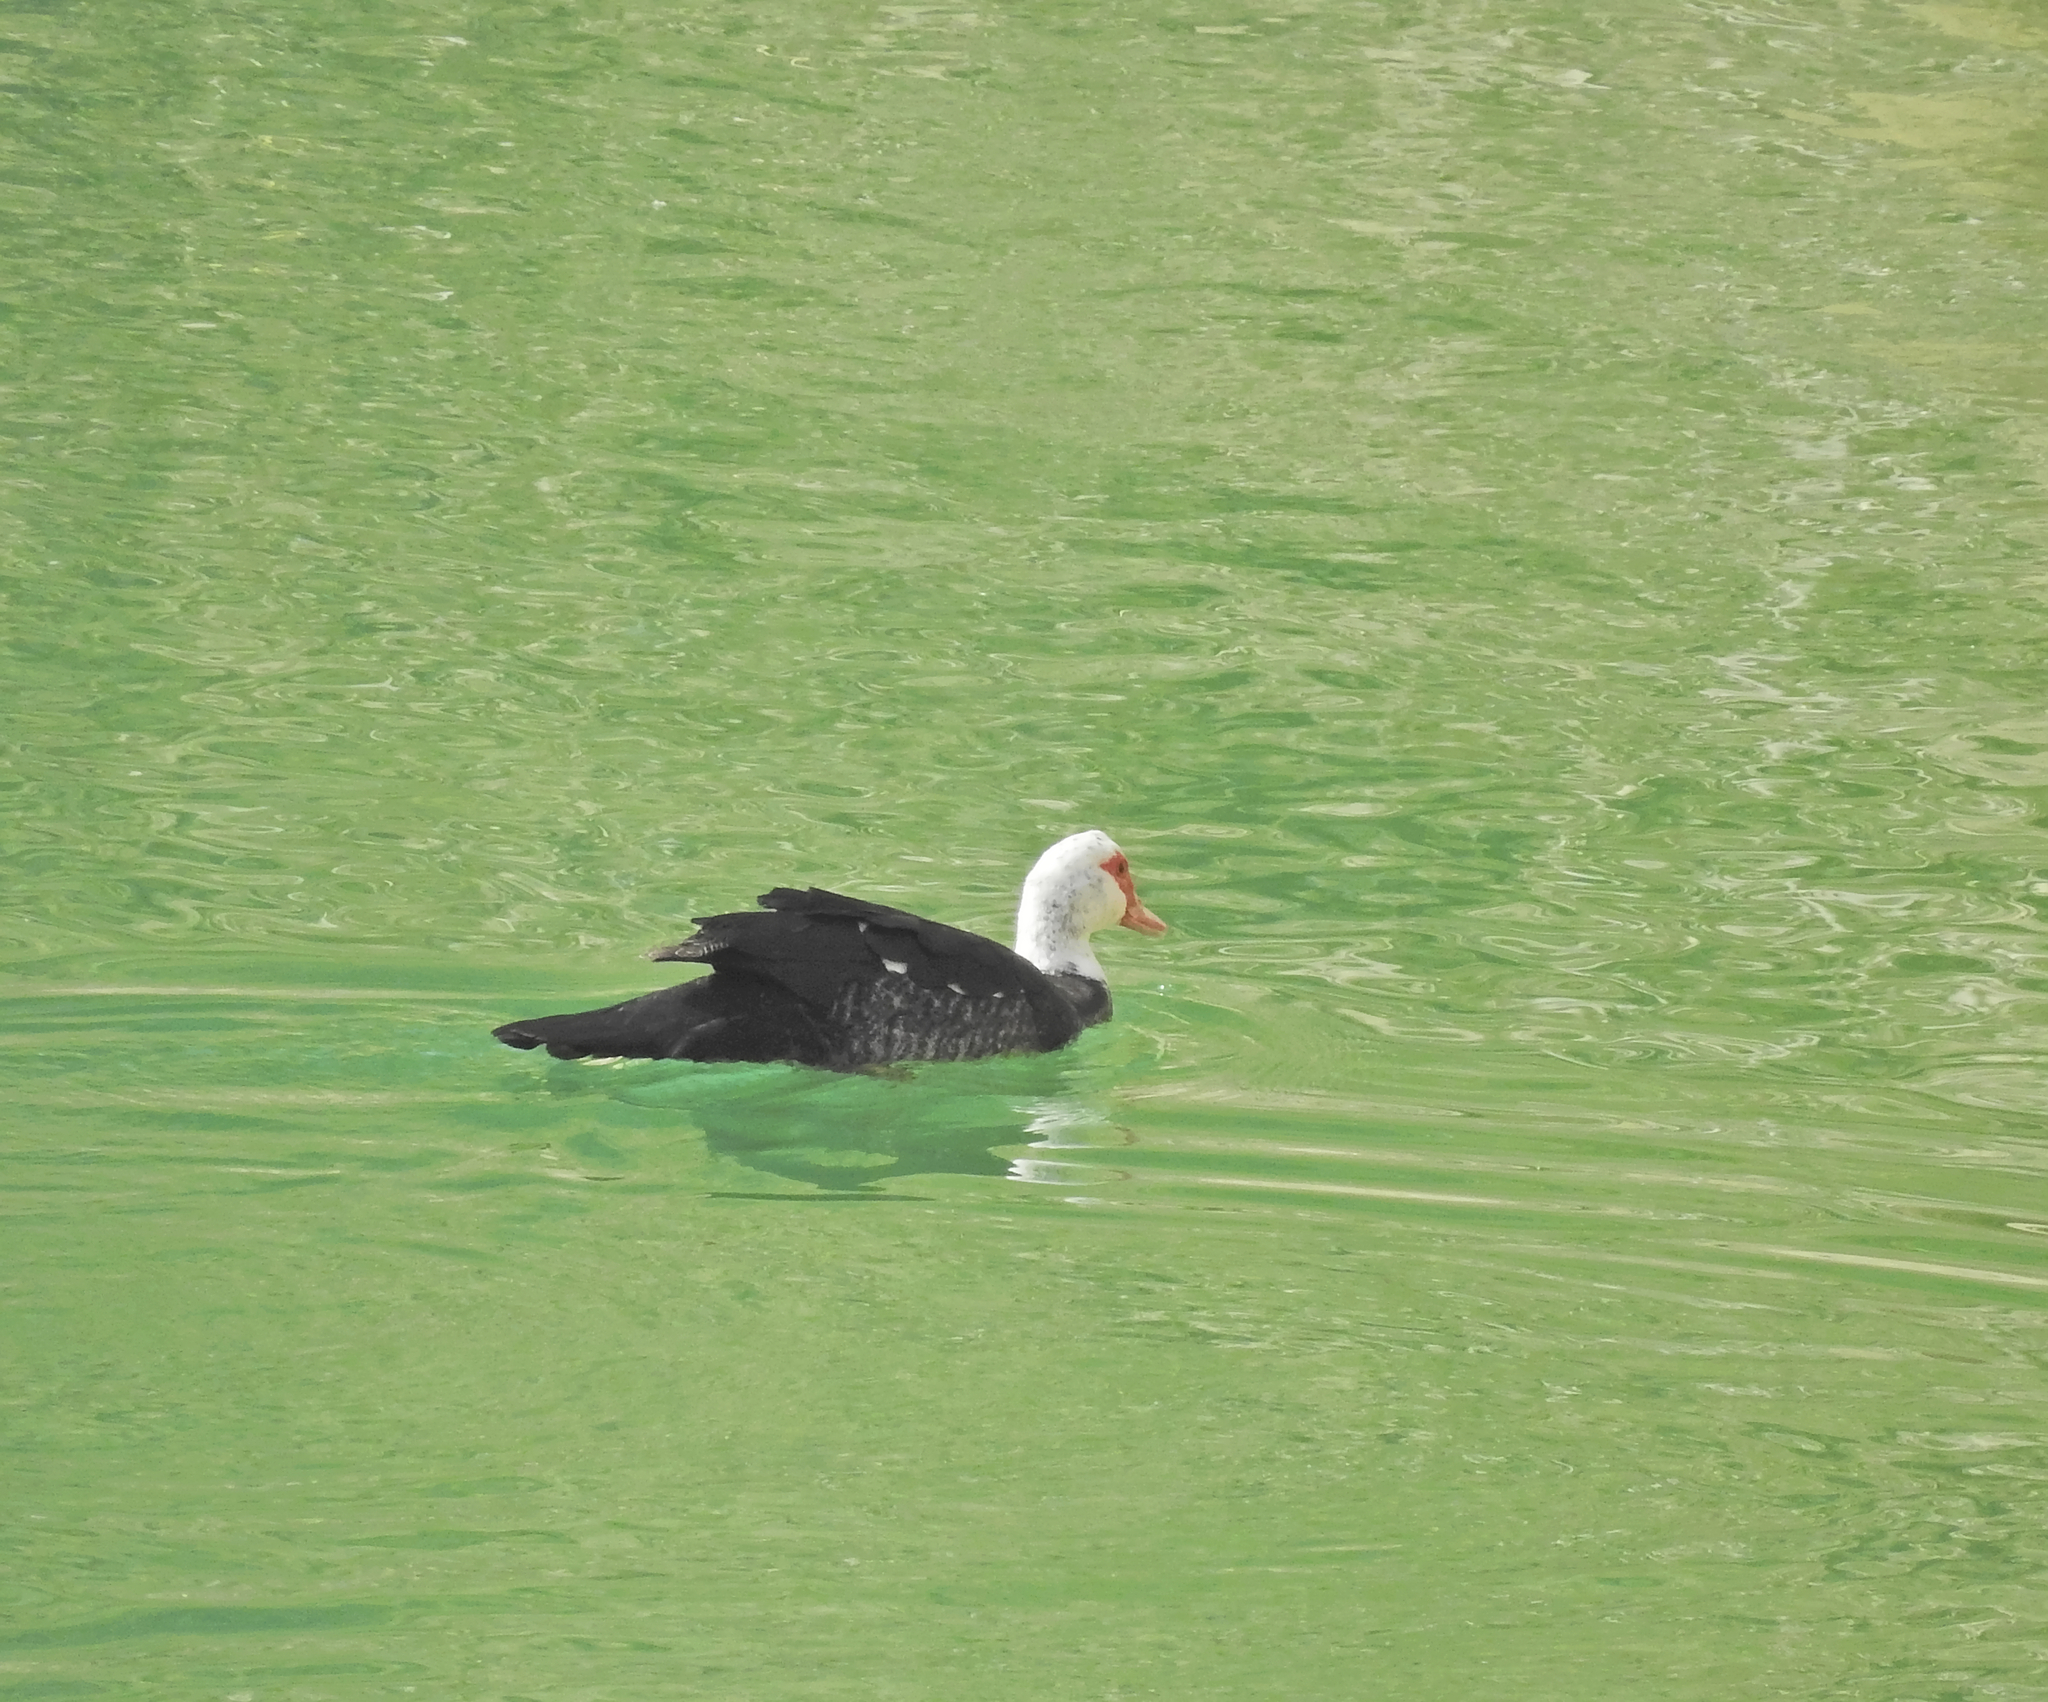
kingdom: Animalia
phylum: Chordata
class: Aves
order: Anseriformes
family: Anatidae
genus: Cairina
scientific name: Cairina moschata
